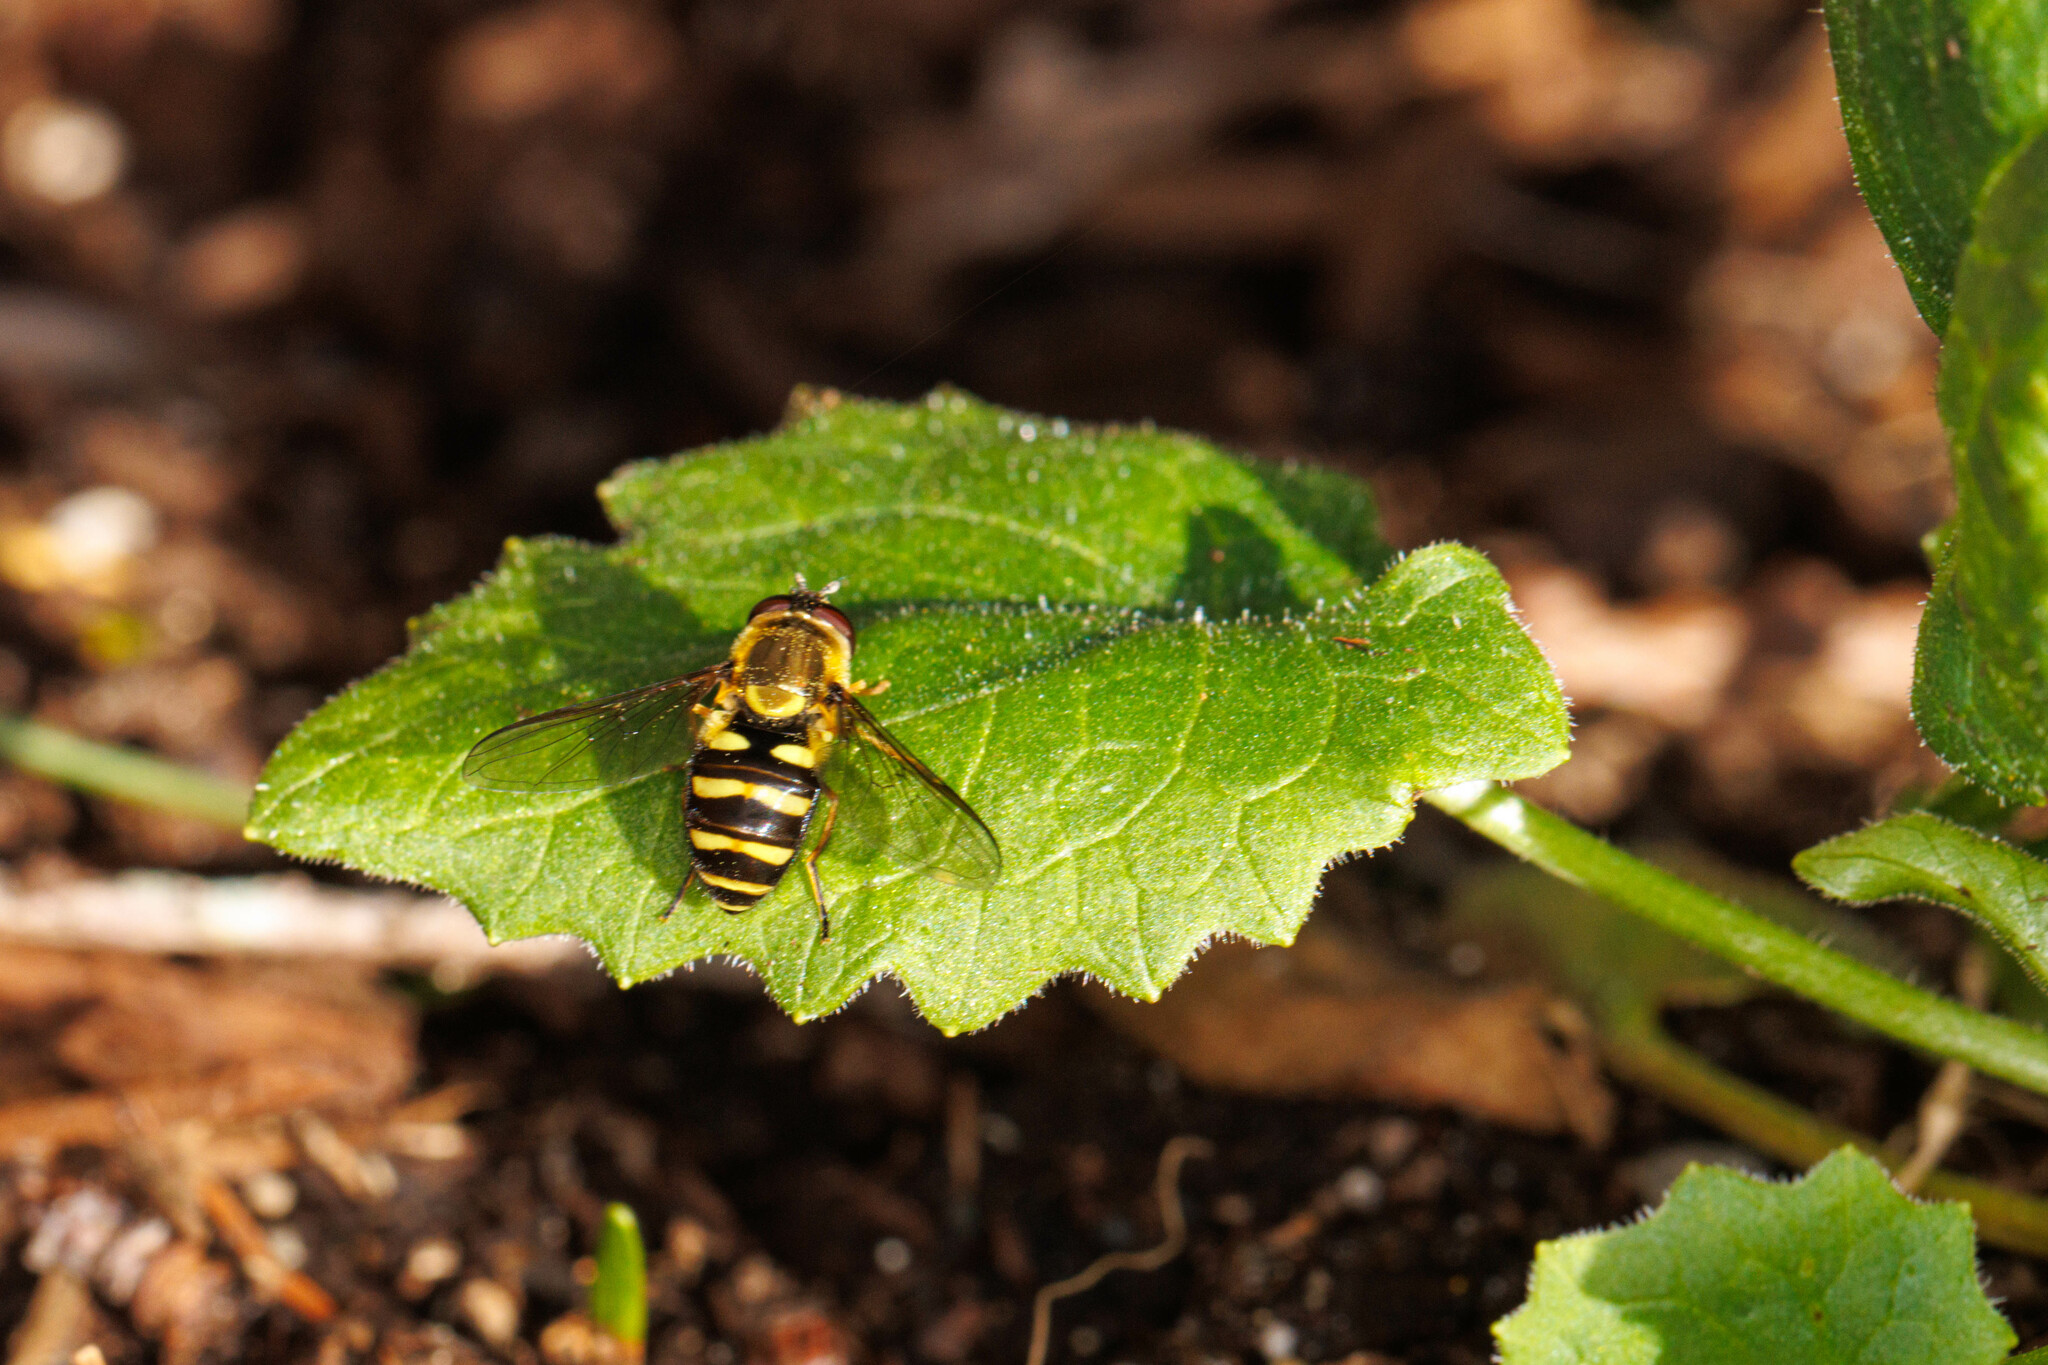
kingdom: Animalia
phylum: Arthropoda
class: Insecta
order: Diptera
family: Syrphidae
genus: Syrphus
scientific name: Syrphus opinator
